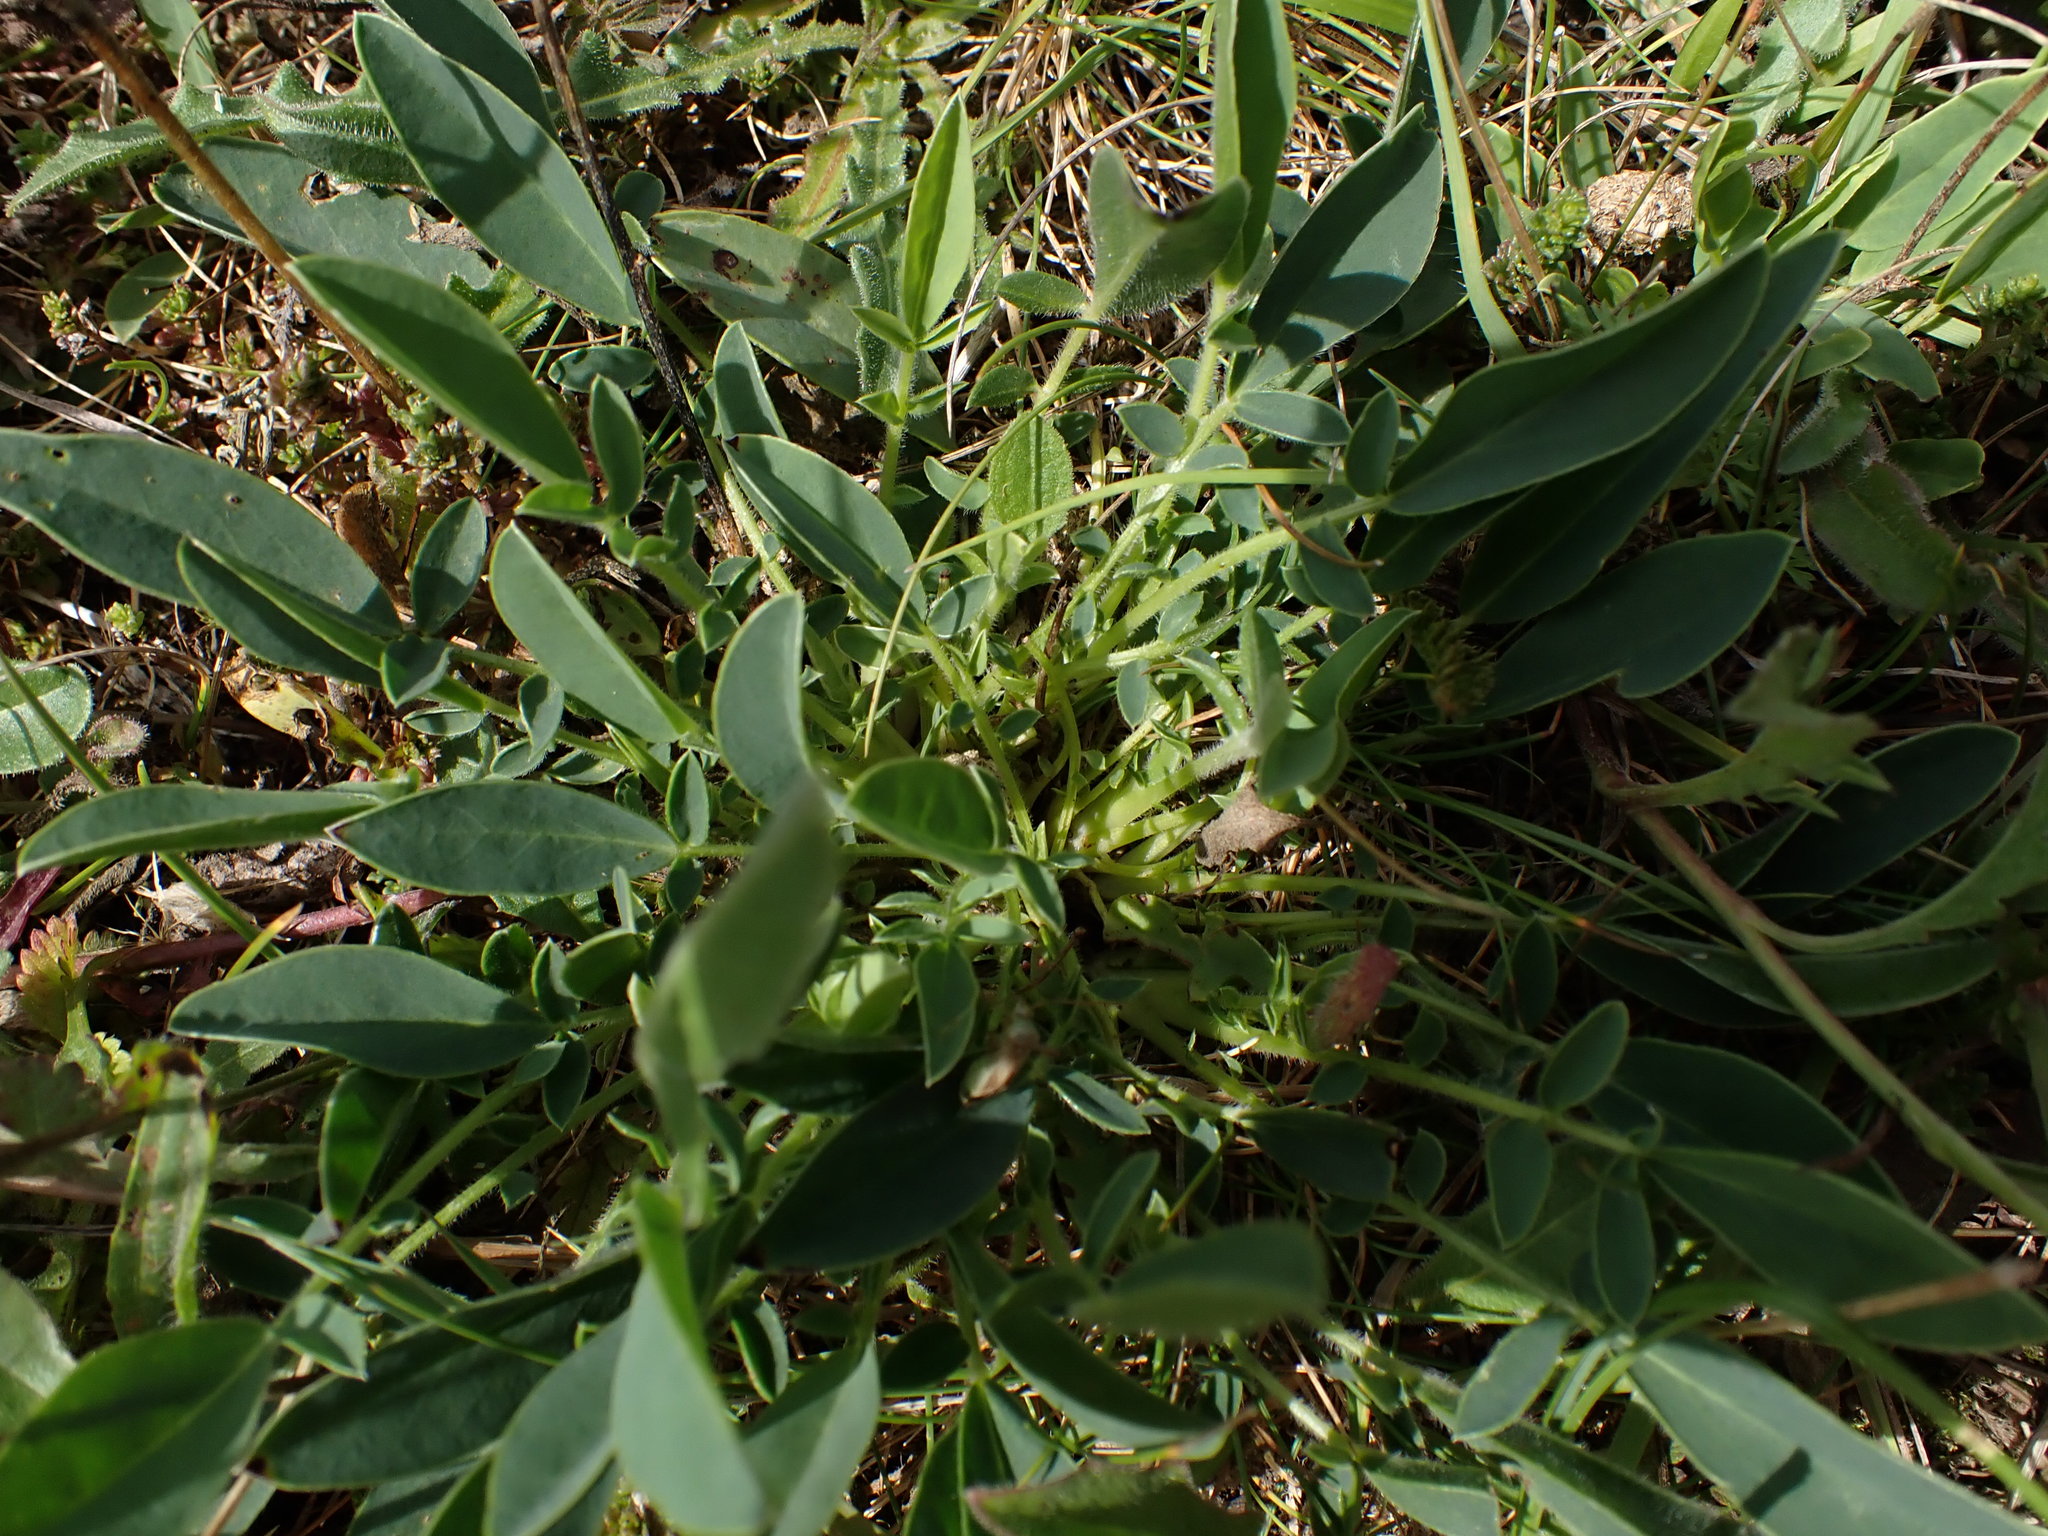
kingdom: Plantae
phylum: Tracheophyta
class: Magnoliopsida
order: Fabales
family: Fabaceae
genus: Anthyllis
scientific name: Anthyllis vulneraria
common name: Kidney vetch
